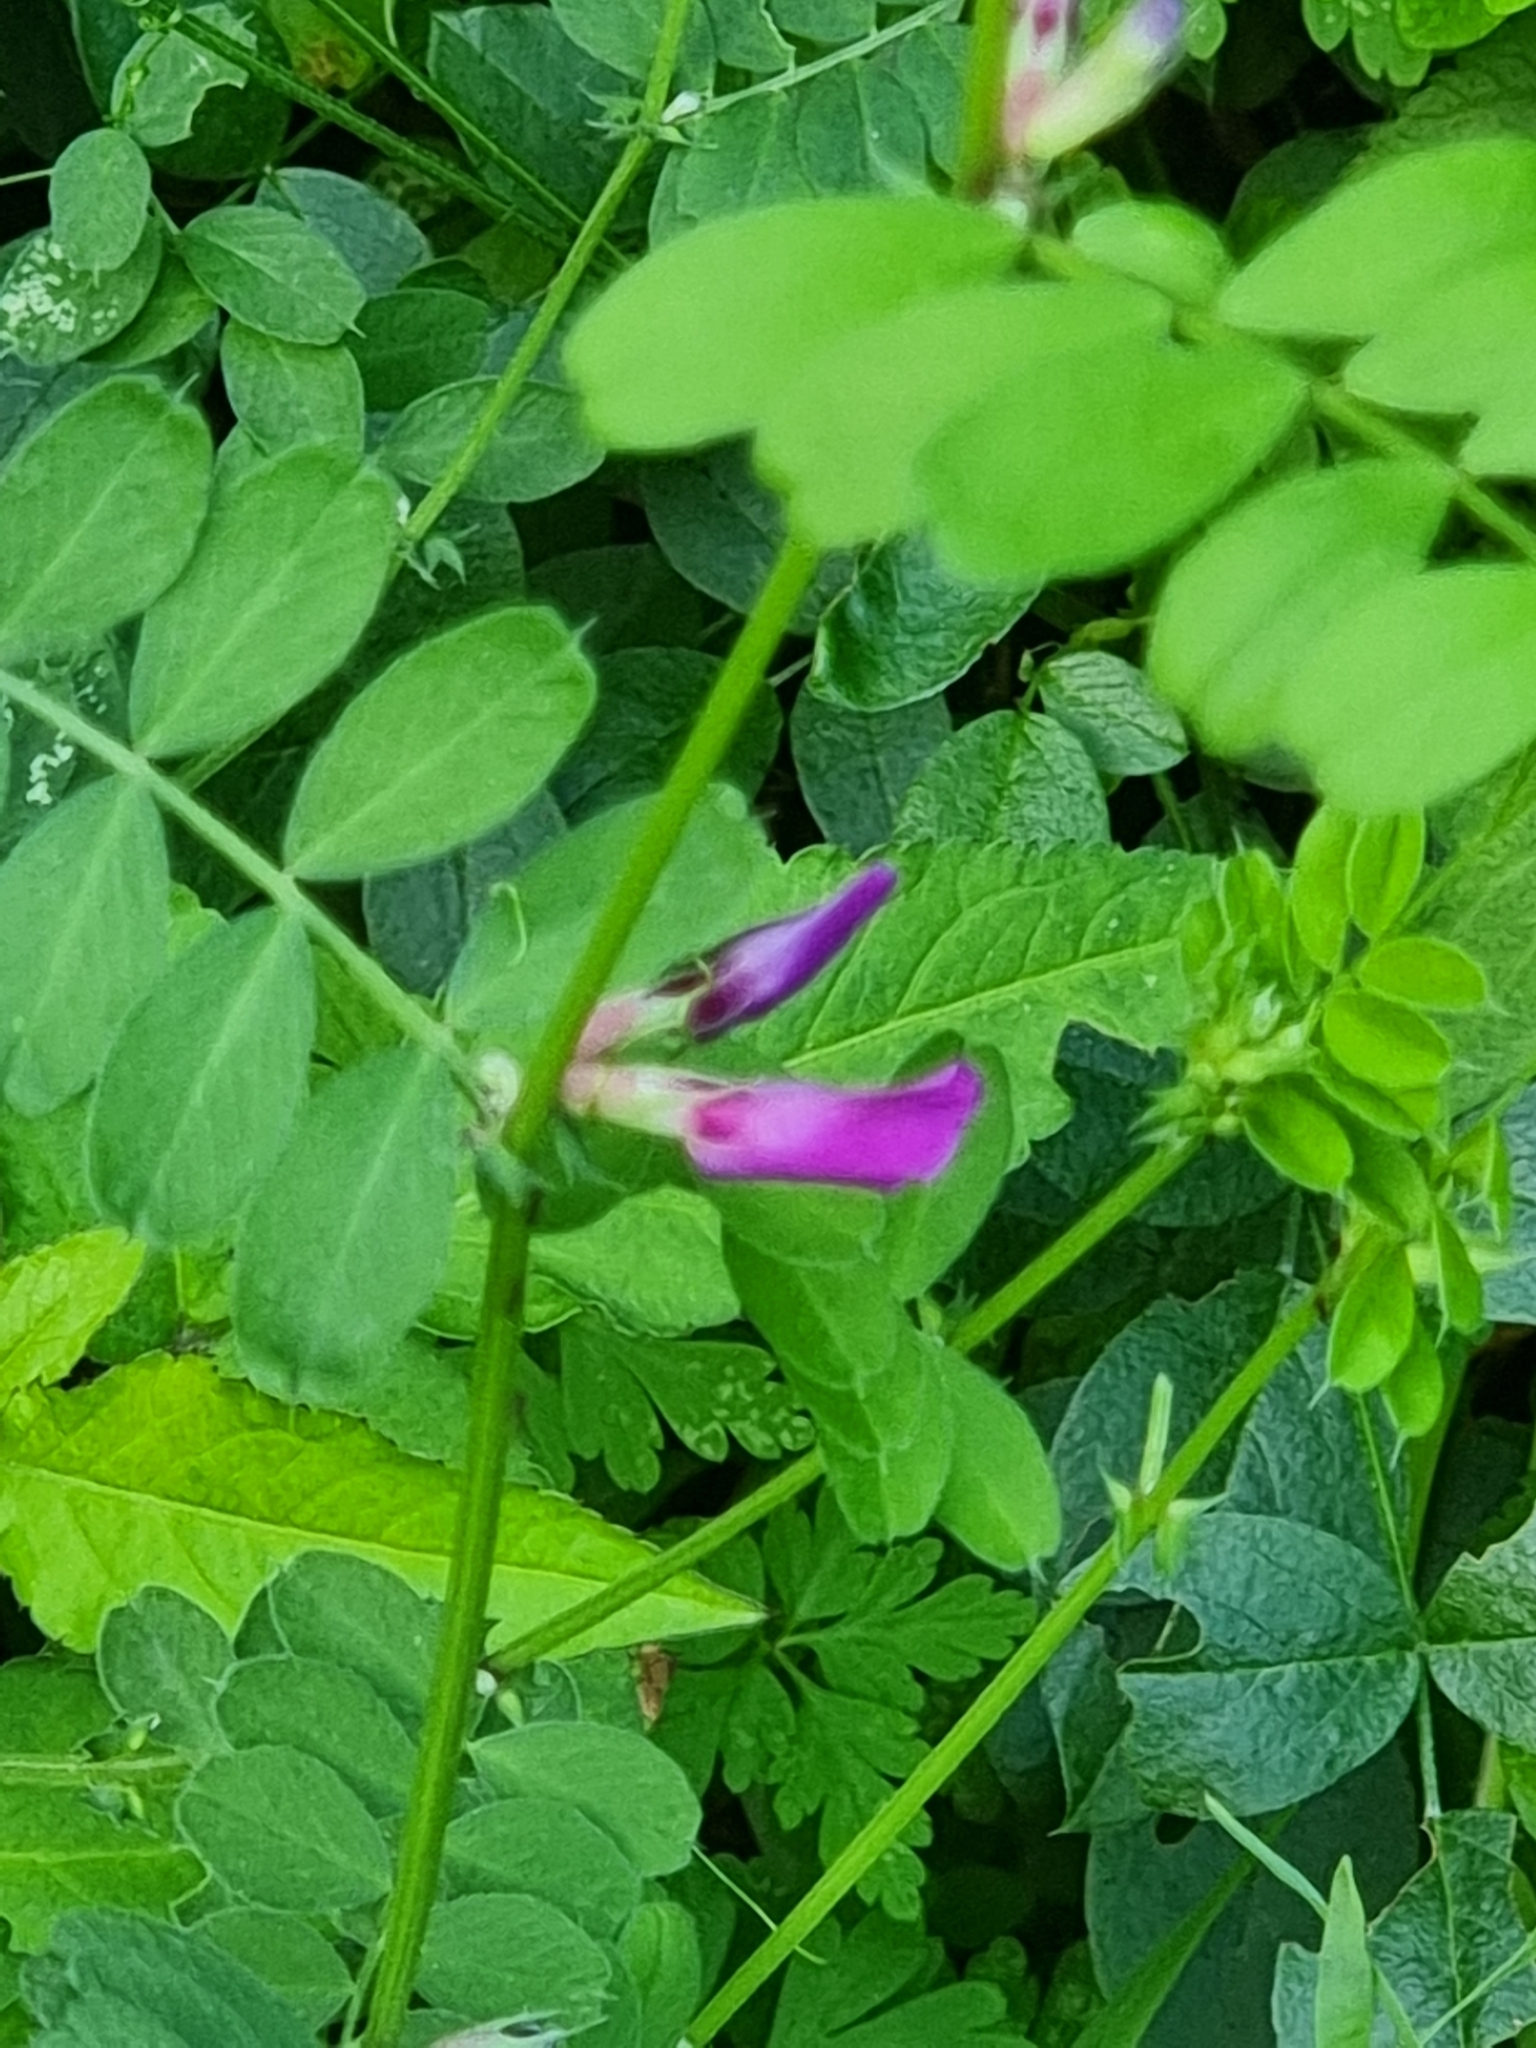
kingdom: Plantae
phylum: Tracheophyta
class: Magnoliopsida
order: Fabales
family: Fabaceae
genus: Vicia
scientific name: Vicia sativa
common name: Garden vetch
